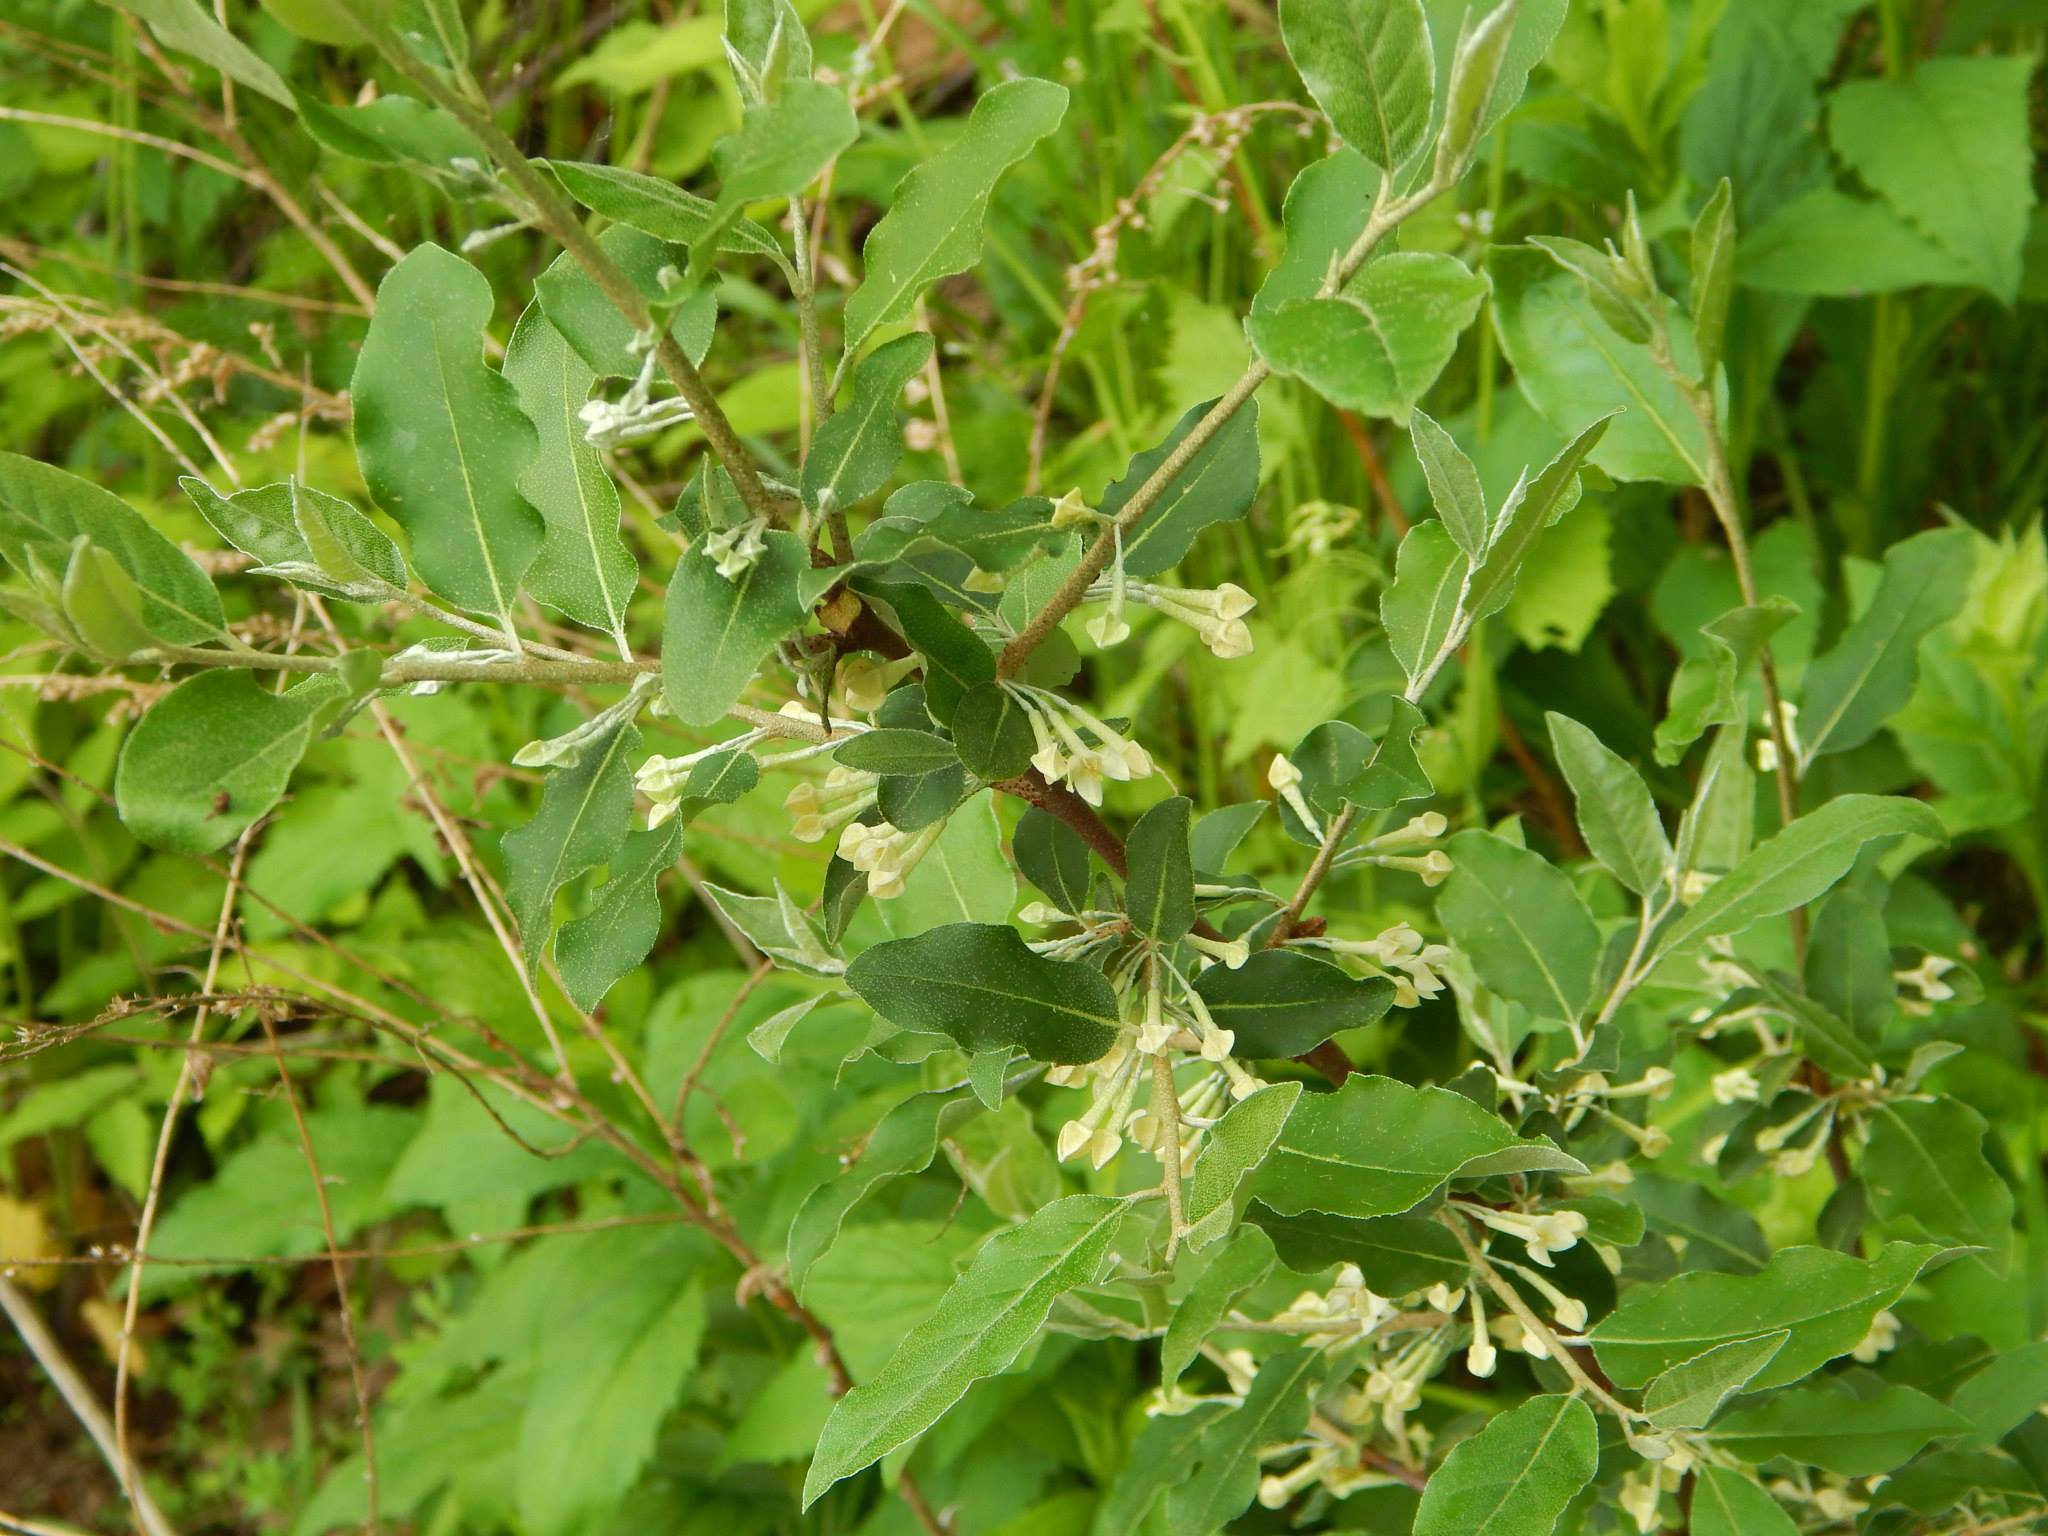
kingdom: Plantae
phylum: Tracheophyta
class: Magnoliopsida
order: Rosales
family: Elaeagnaceae
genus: Elaeagnus
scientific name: Elaeagnus umbellata
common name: Autumn olive
